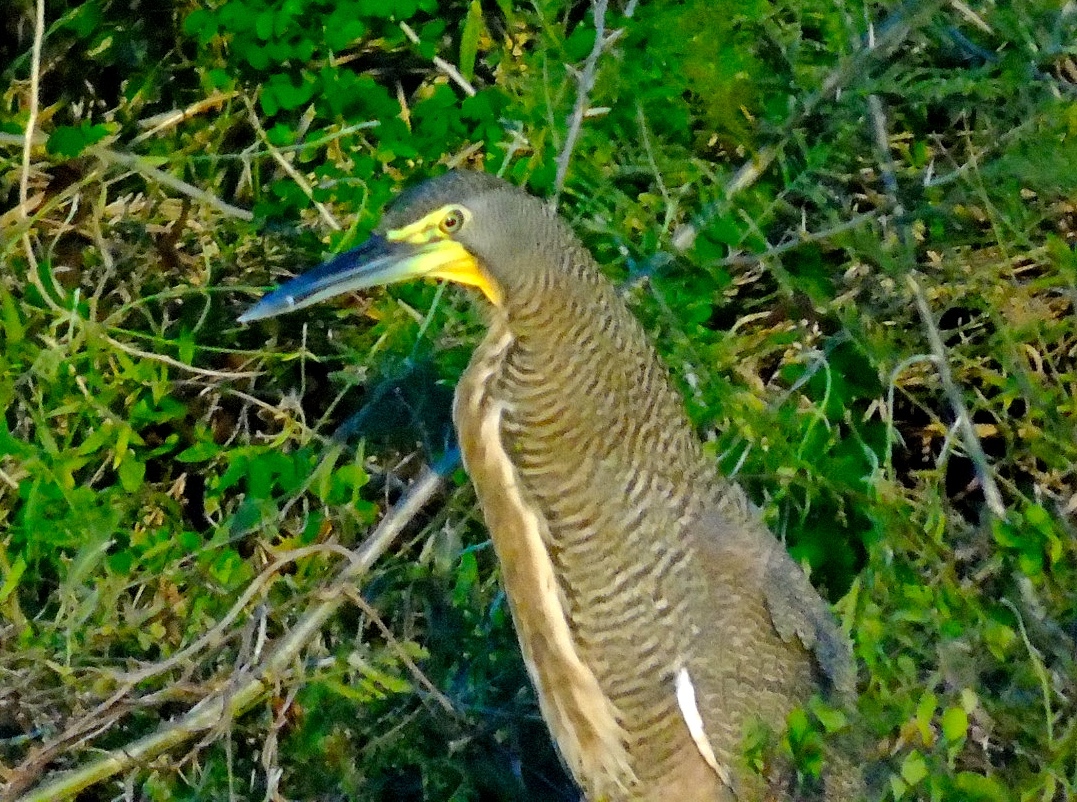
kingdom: Animalia
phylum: Chordata
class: Aves
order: Pelecaniformes
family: Ardeidae
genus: Tigrisoma
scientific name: Tigrisoma mexicanum
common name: Bare-throated tiger-heron
